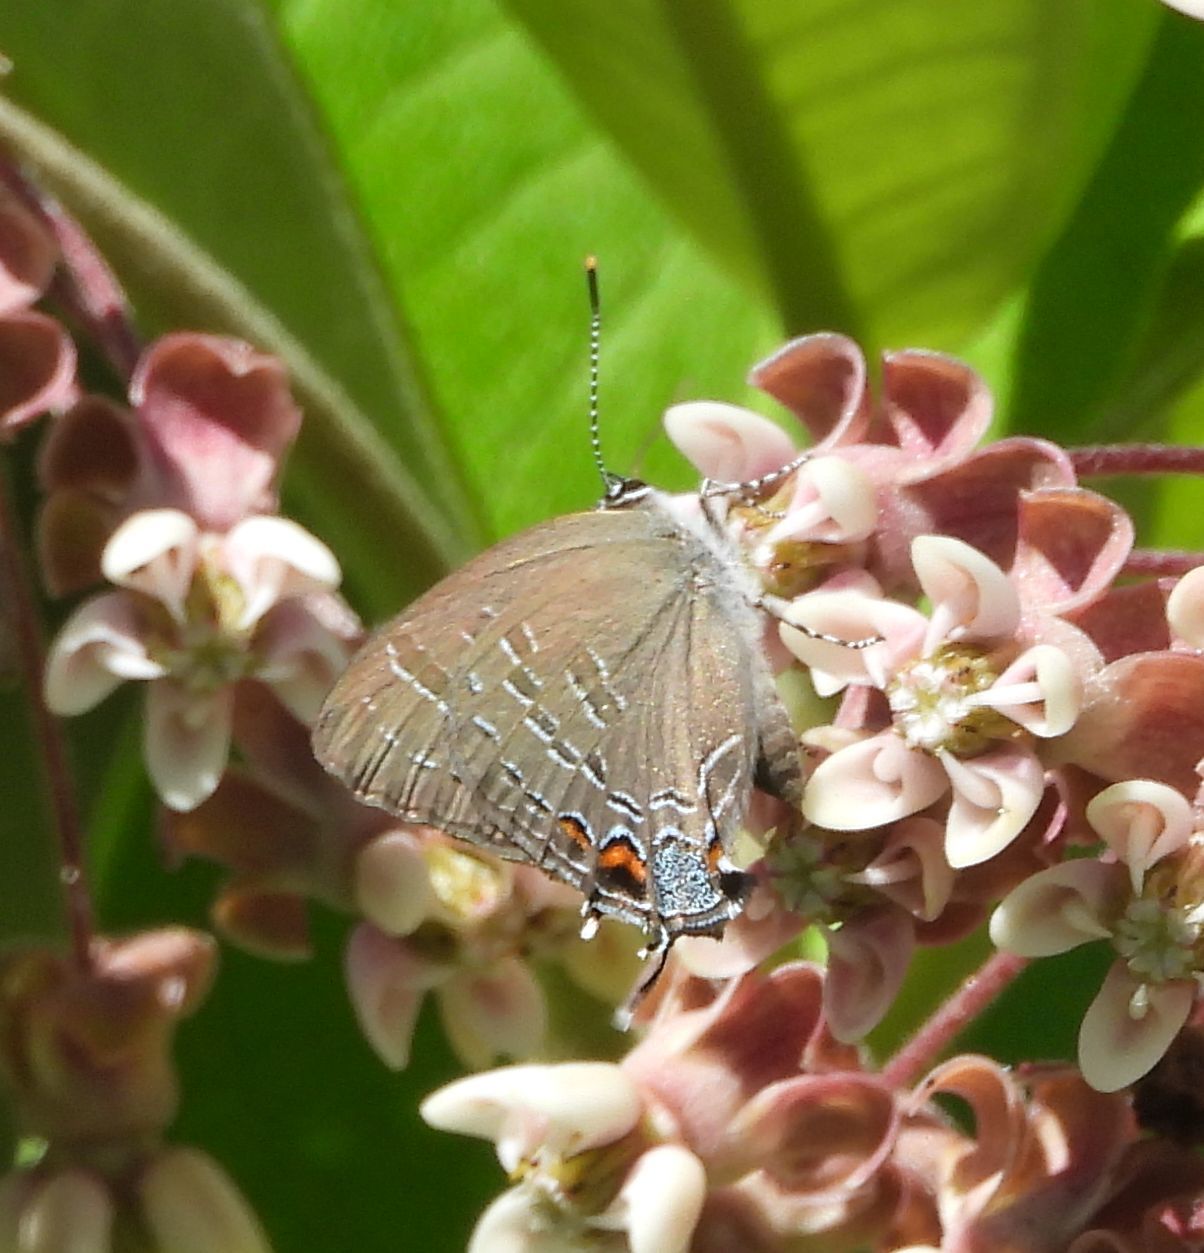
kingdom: Animalia
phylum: Arthropoda
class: Insecta
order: Lepidoptera
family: Lycaenidae
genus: Satyrium
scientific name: Satyrium calanus
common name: Banded hairstreak
